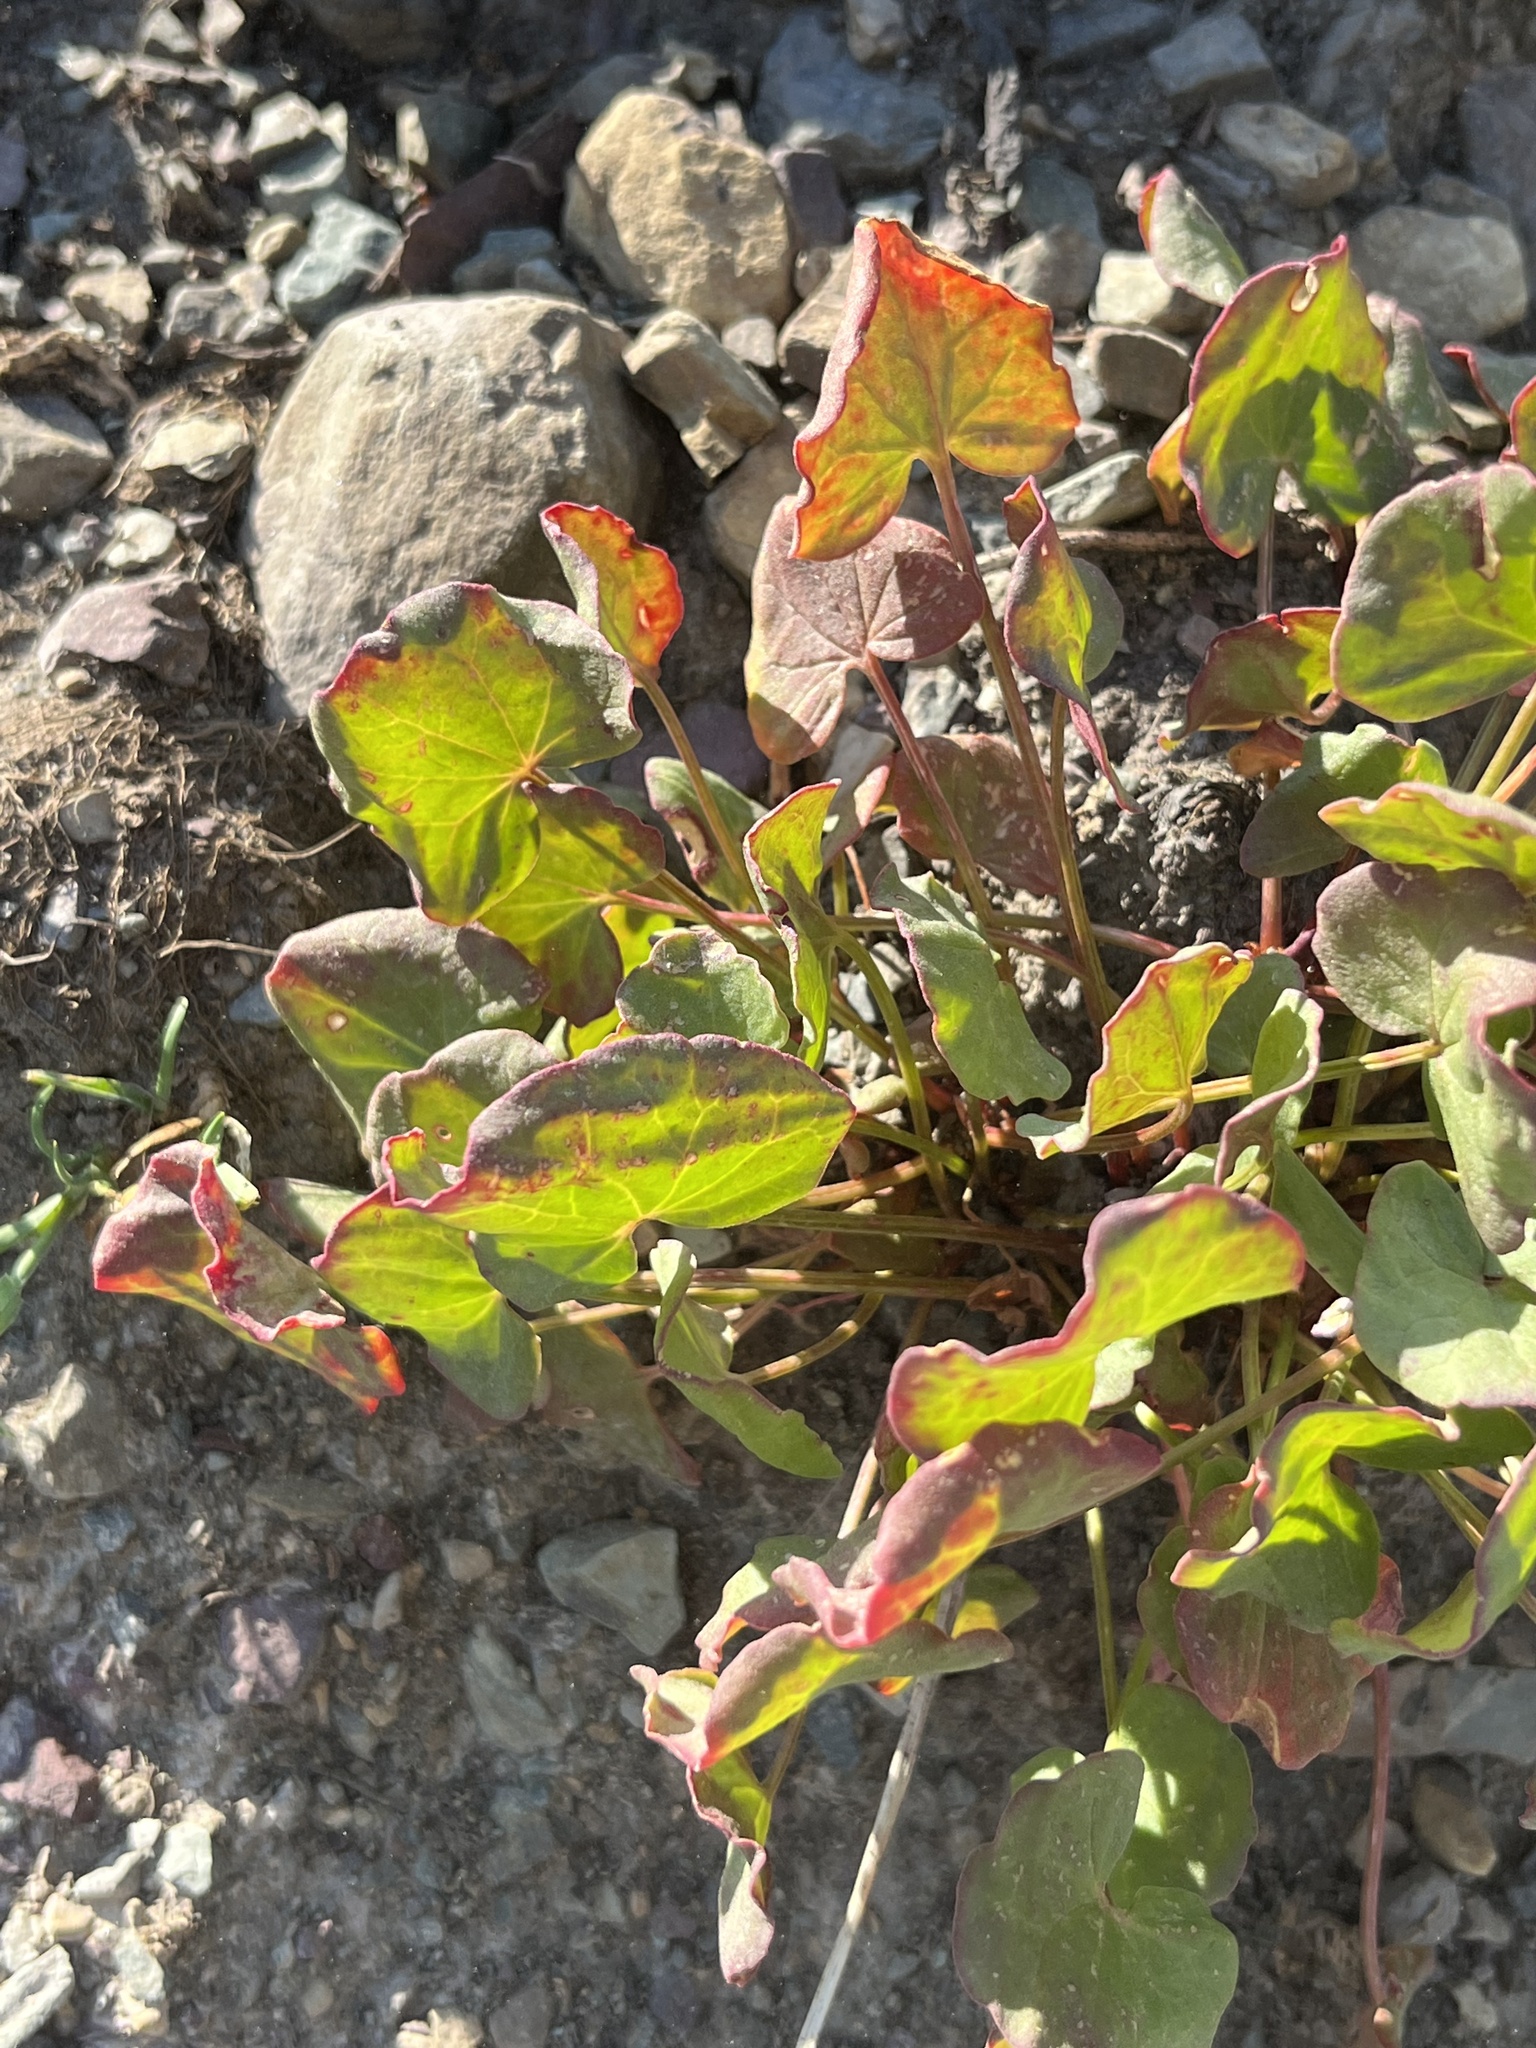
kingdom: Plantae
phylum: Tracheophyta
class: Magnoliopsida
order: Caryophyllales
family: Polygonaceae
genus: Oxyria
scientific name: Oxyria digyna
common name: Alpine mountain-sorrel
